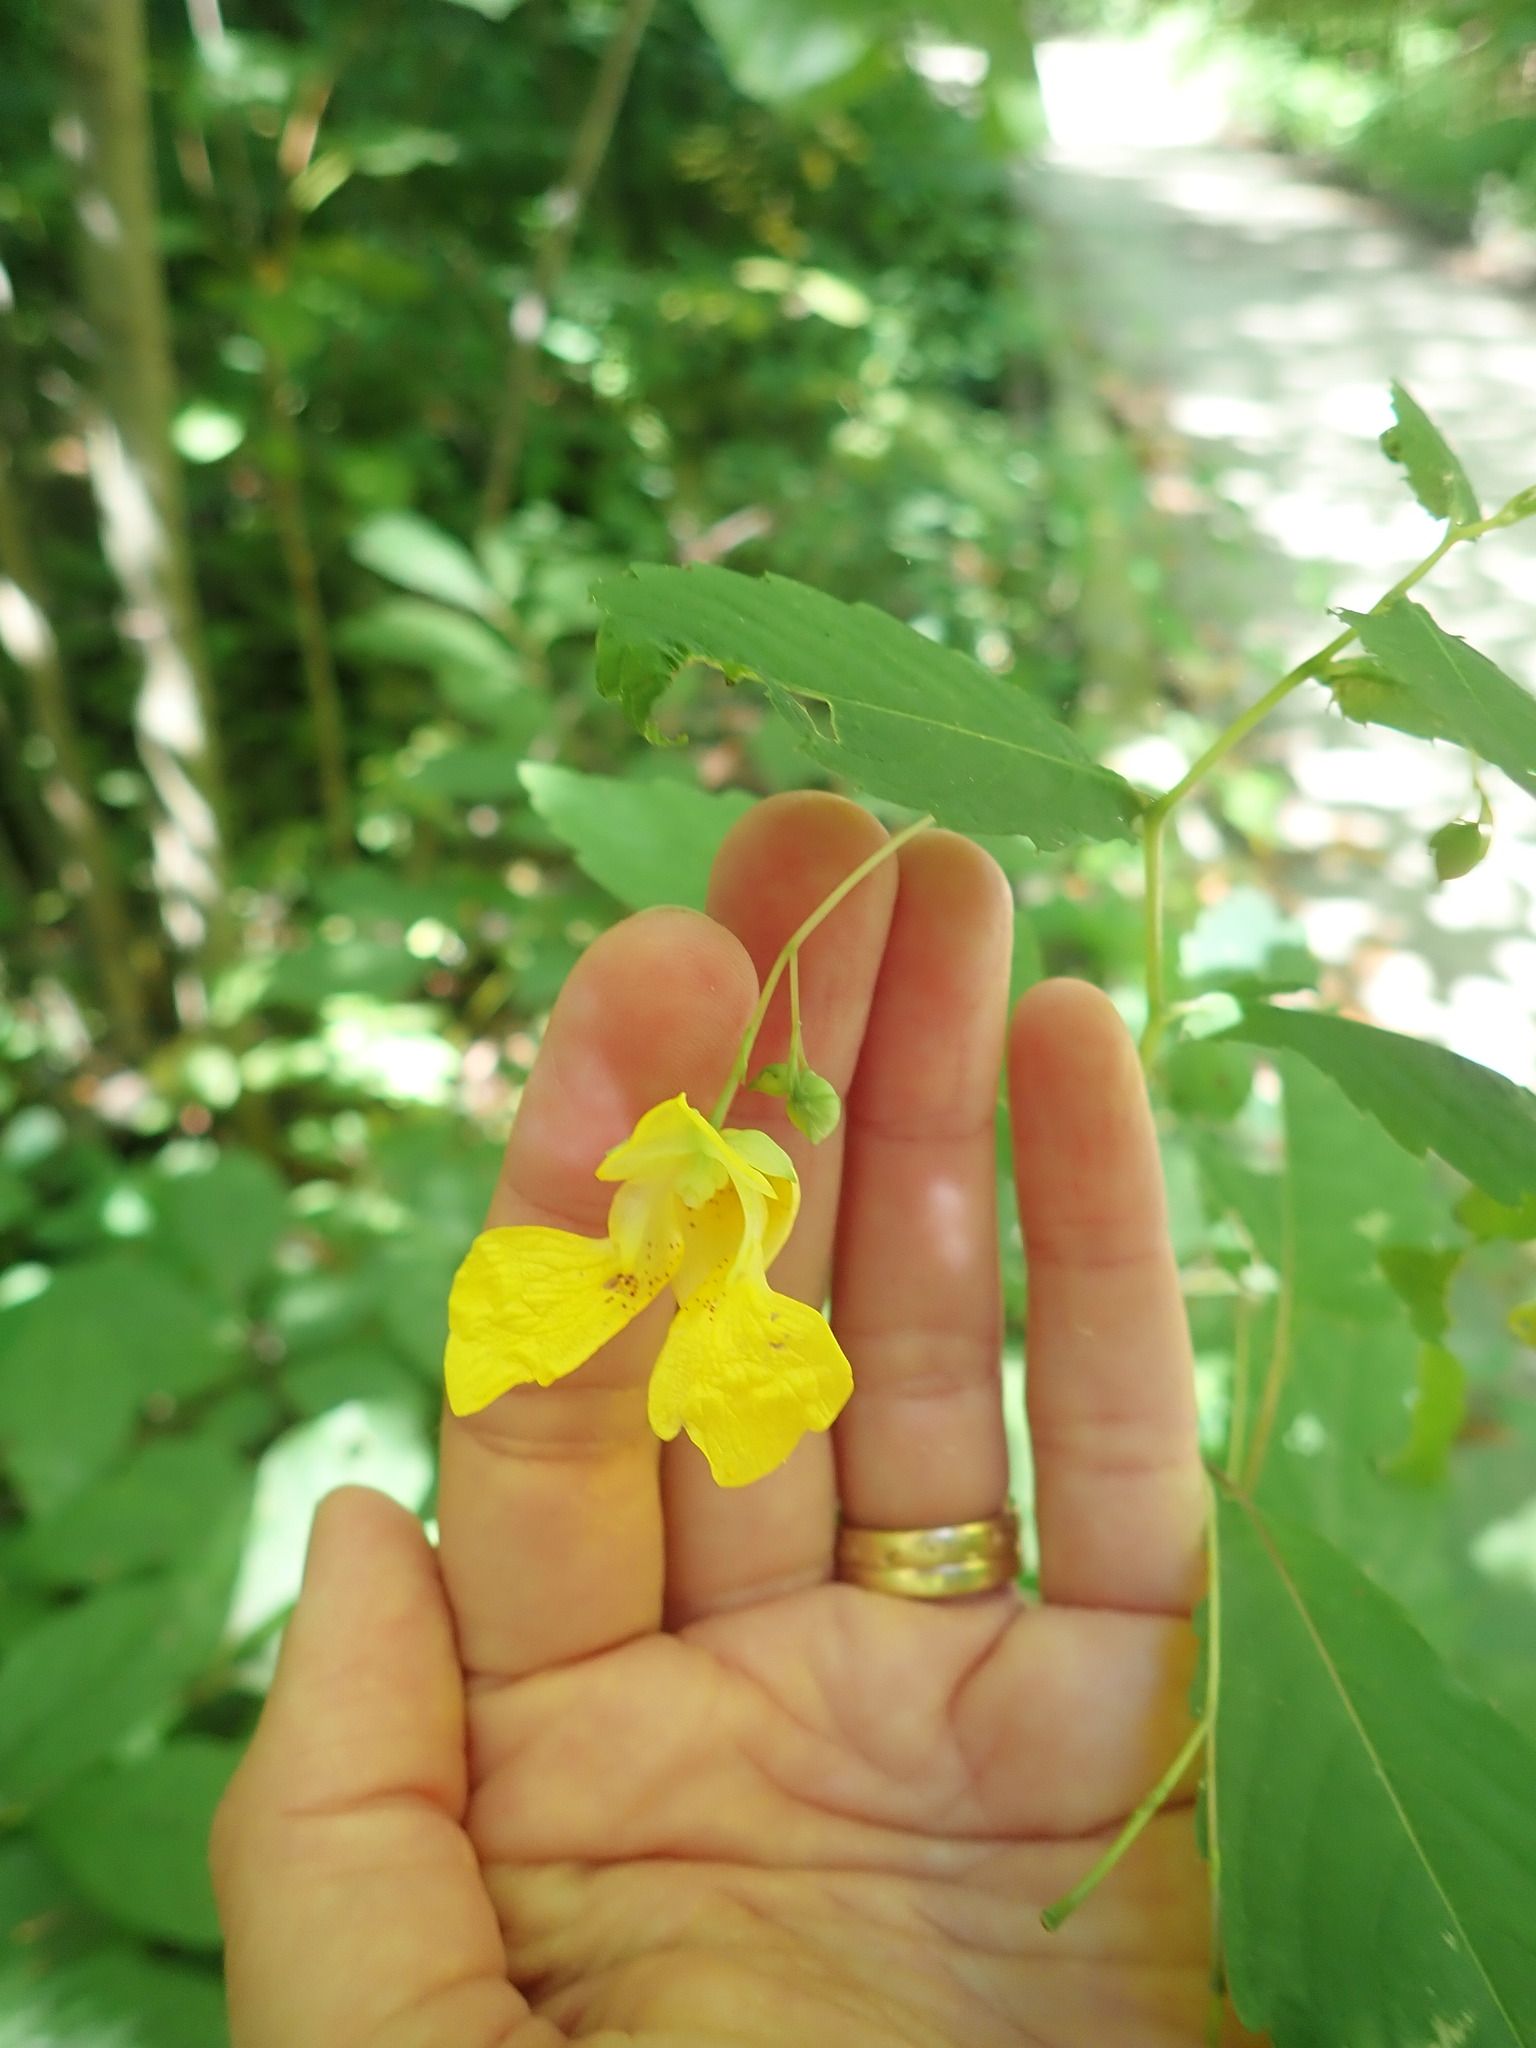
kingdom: Plantae
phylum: Tracheophyta
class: Magnoliopsida
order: Ericales
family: Balsaminaceae
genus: Impatiens
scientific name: Impatiens pallida
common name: Pale snapweed
